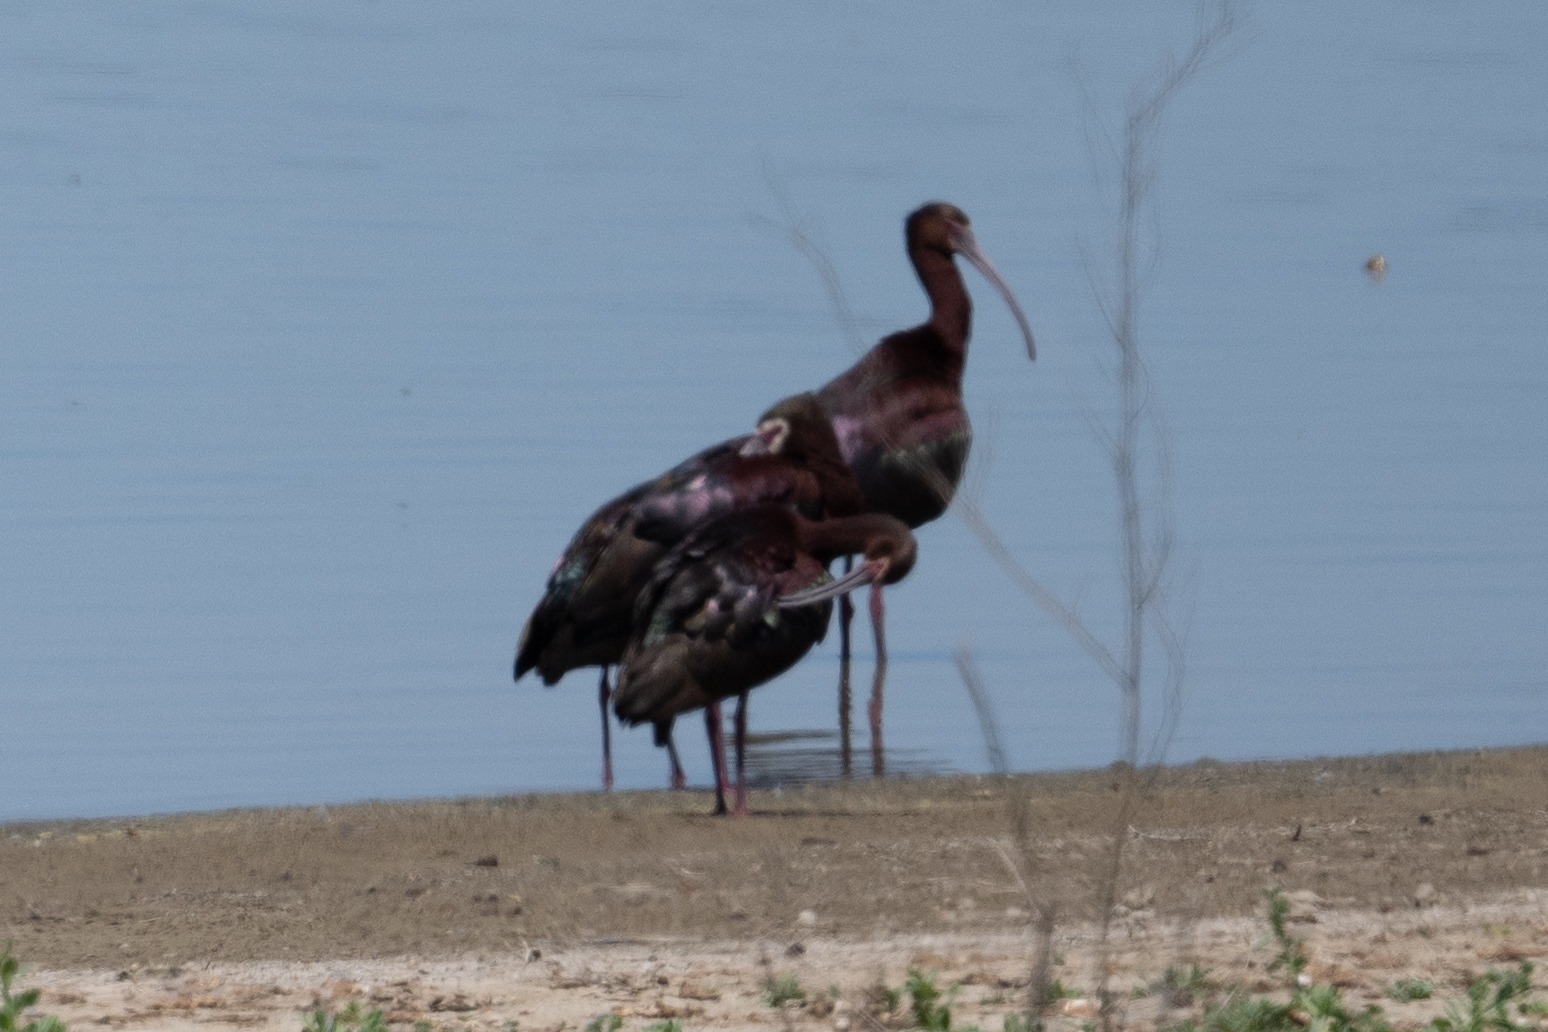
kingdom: Animalia
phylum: Chordata
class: Aves
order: Pelecaniformes
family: Threskiornithidae
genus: Plegadis
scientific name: Plegadis chihi
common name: White-faced ibis
